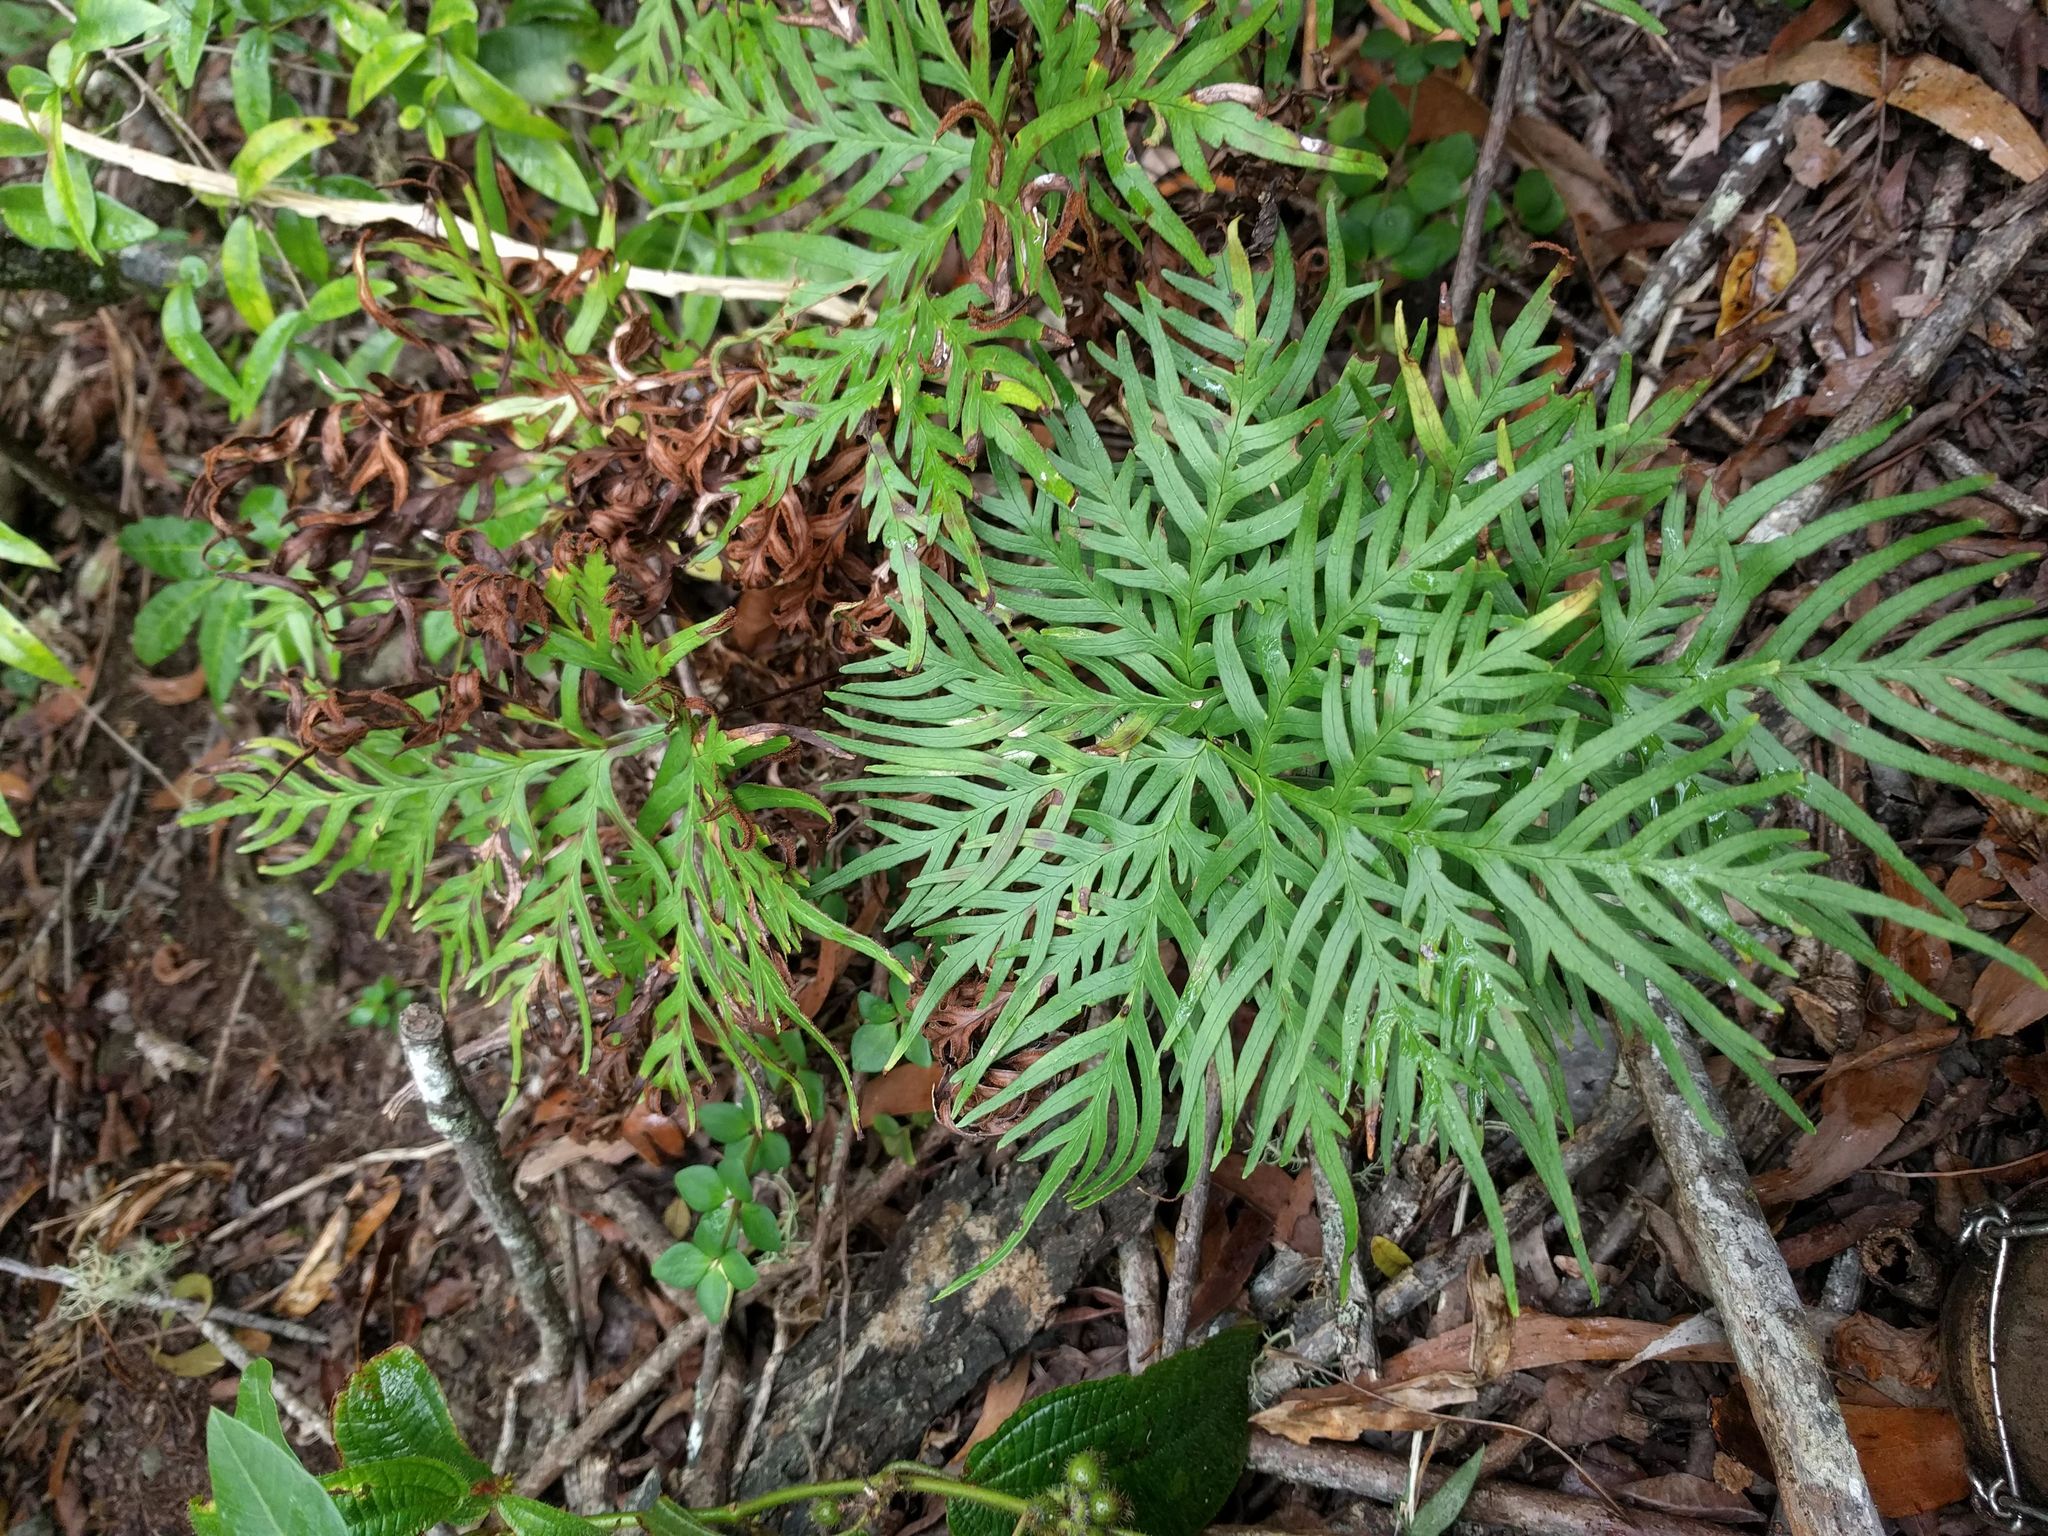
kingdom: Plantae
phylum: Tracheophyta
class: Polypodiopsida
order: Polypodiales
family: Pteridaceae
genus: Doryopteris
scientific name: Doryopteris decipiens
